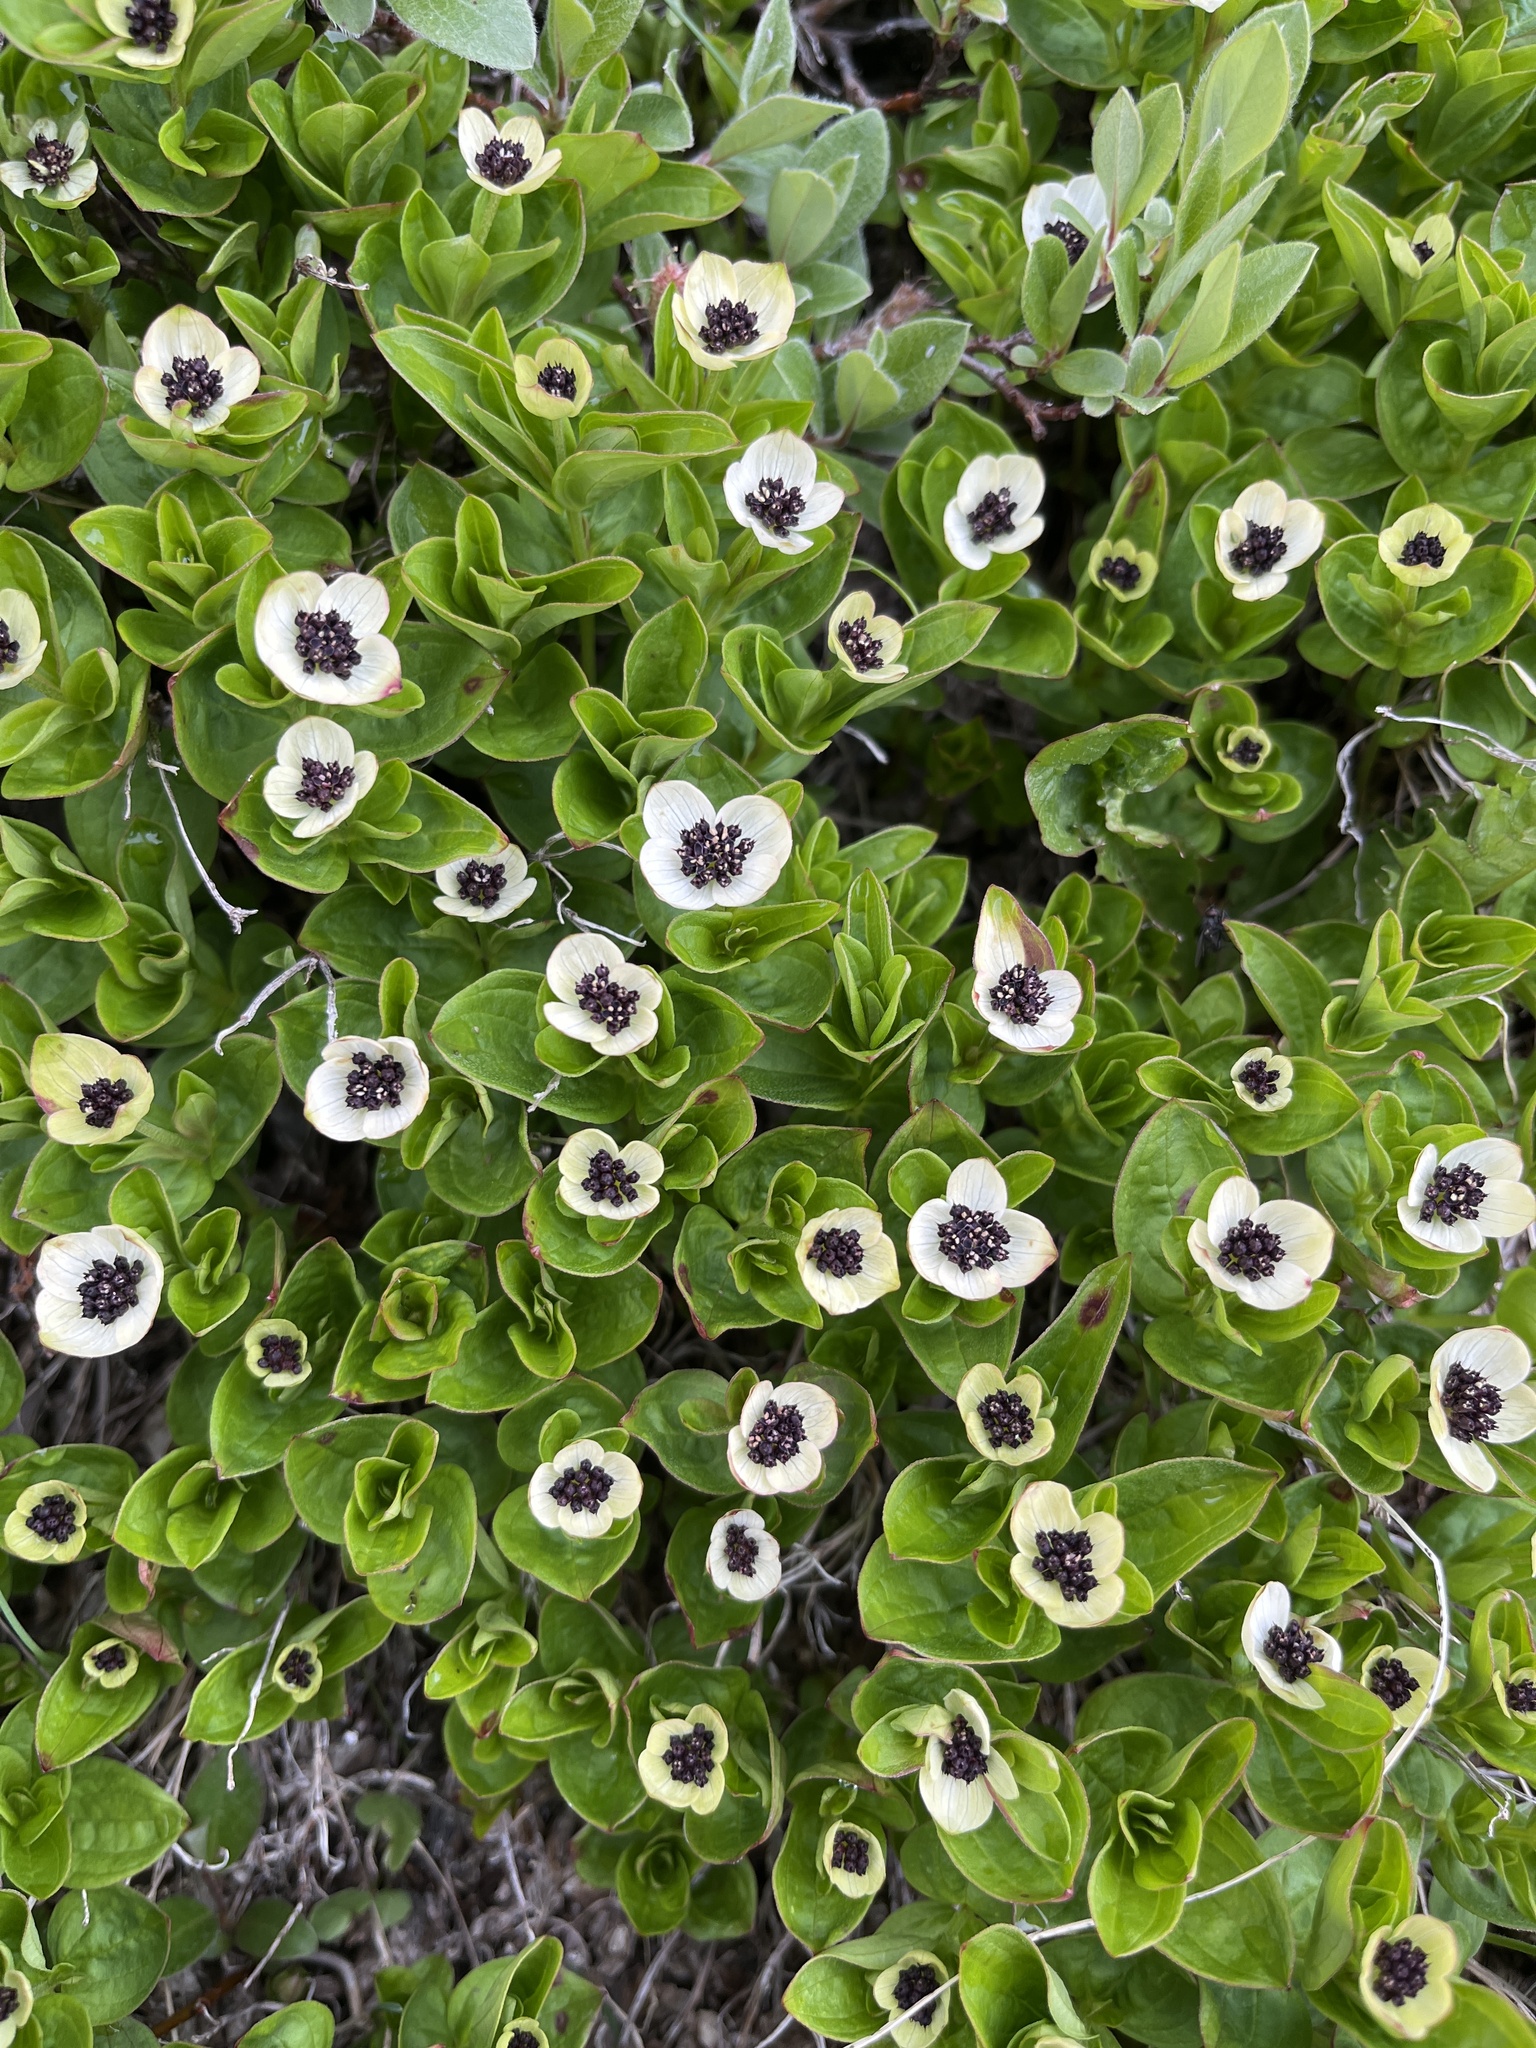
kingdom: Plantae
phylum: Tracheophyta
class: Magnoliopsida
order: Cornales
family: Cornaceae
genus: Cornus
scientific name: Cornus suecica
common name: Dwarf cornel
